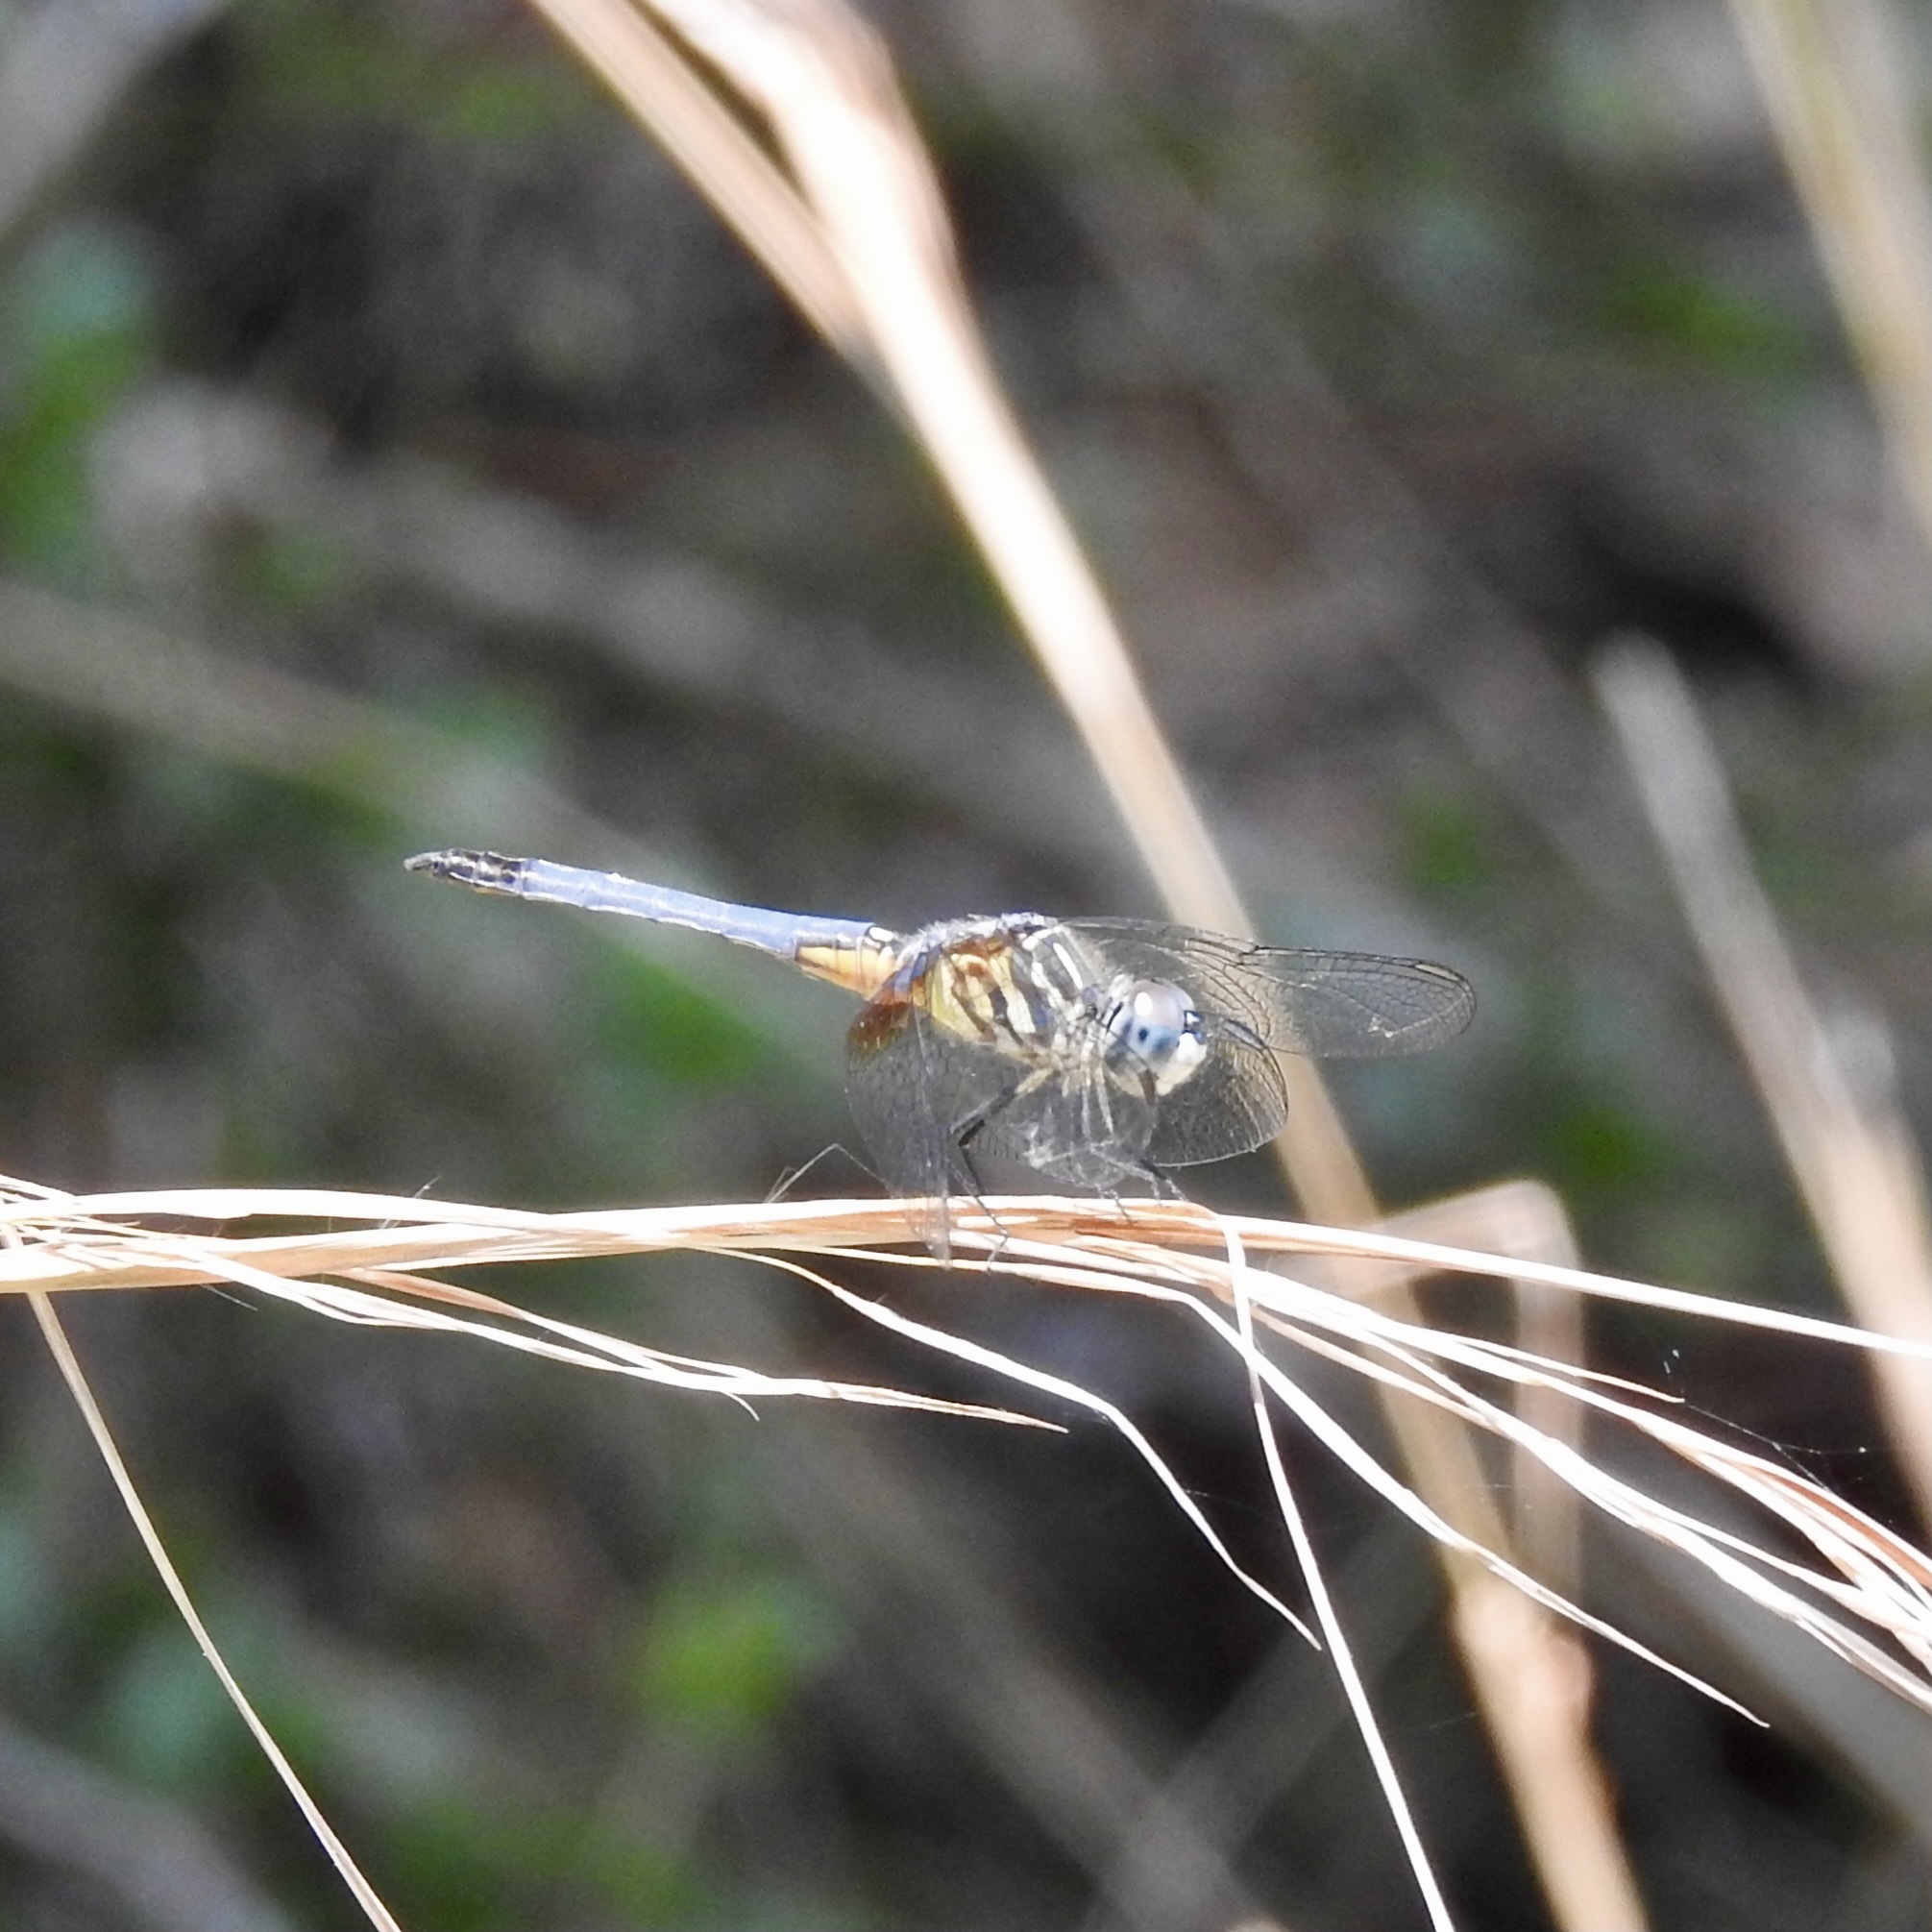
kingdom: Animalia
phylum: Arthropoda
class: Insecta
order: Odonata
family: Libellulidae
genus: Pachydiplax
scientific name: Pachydiplax longipennis
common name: Blue dasher
